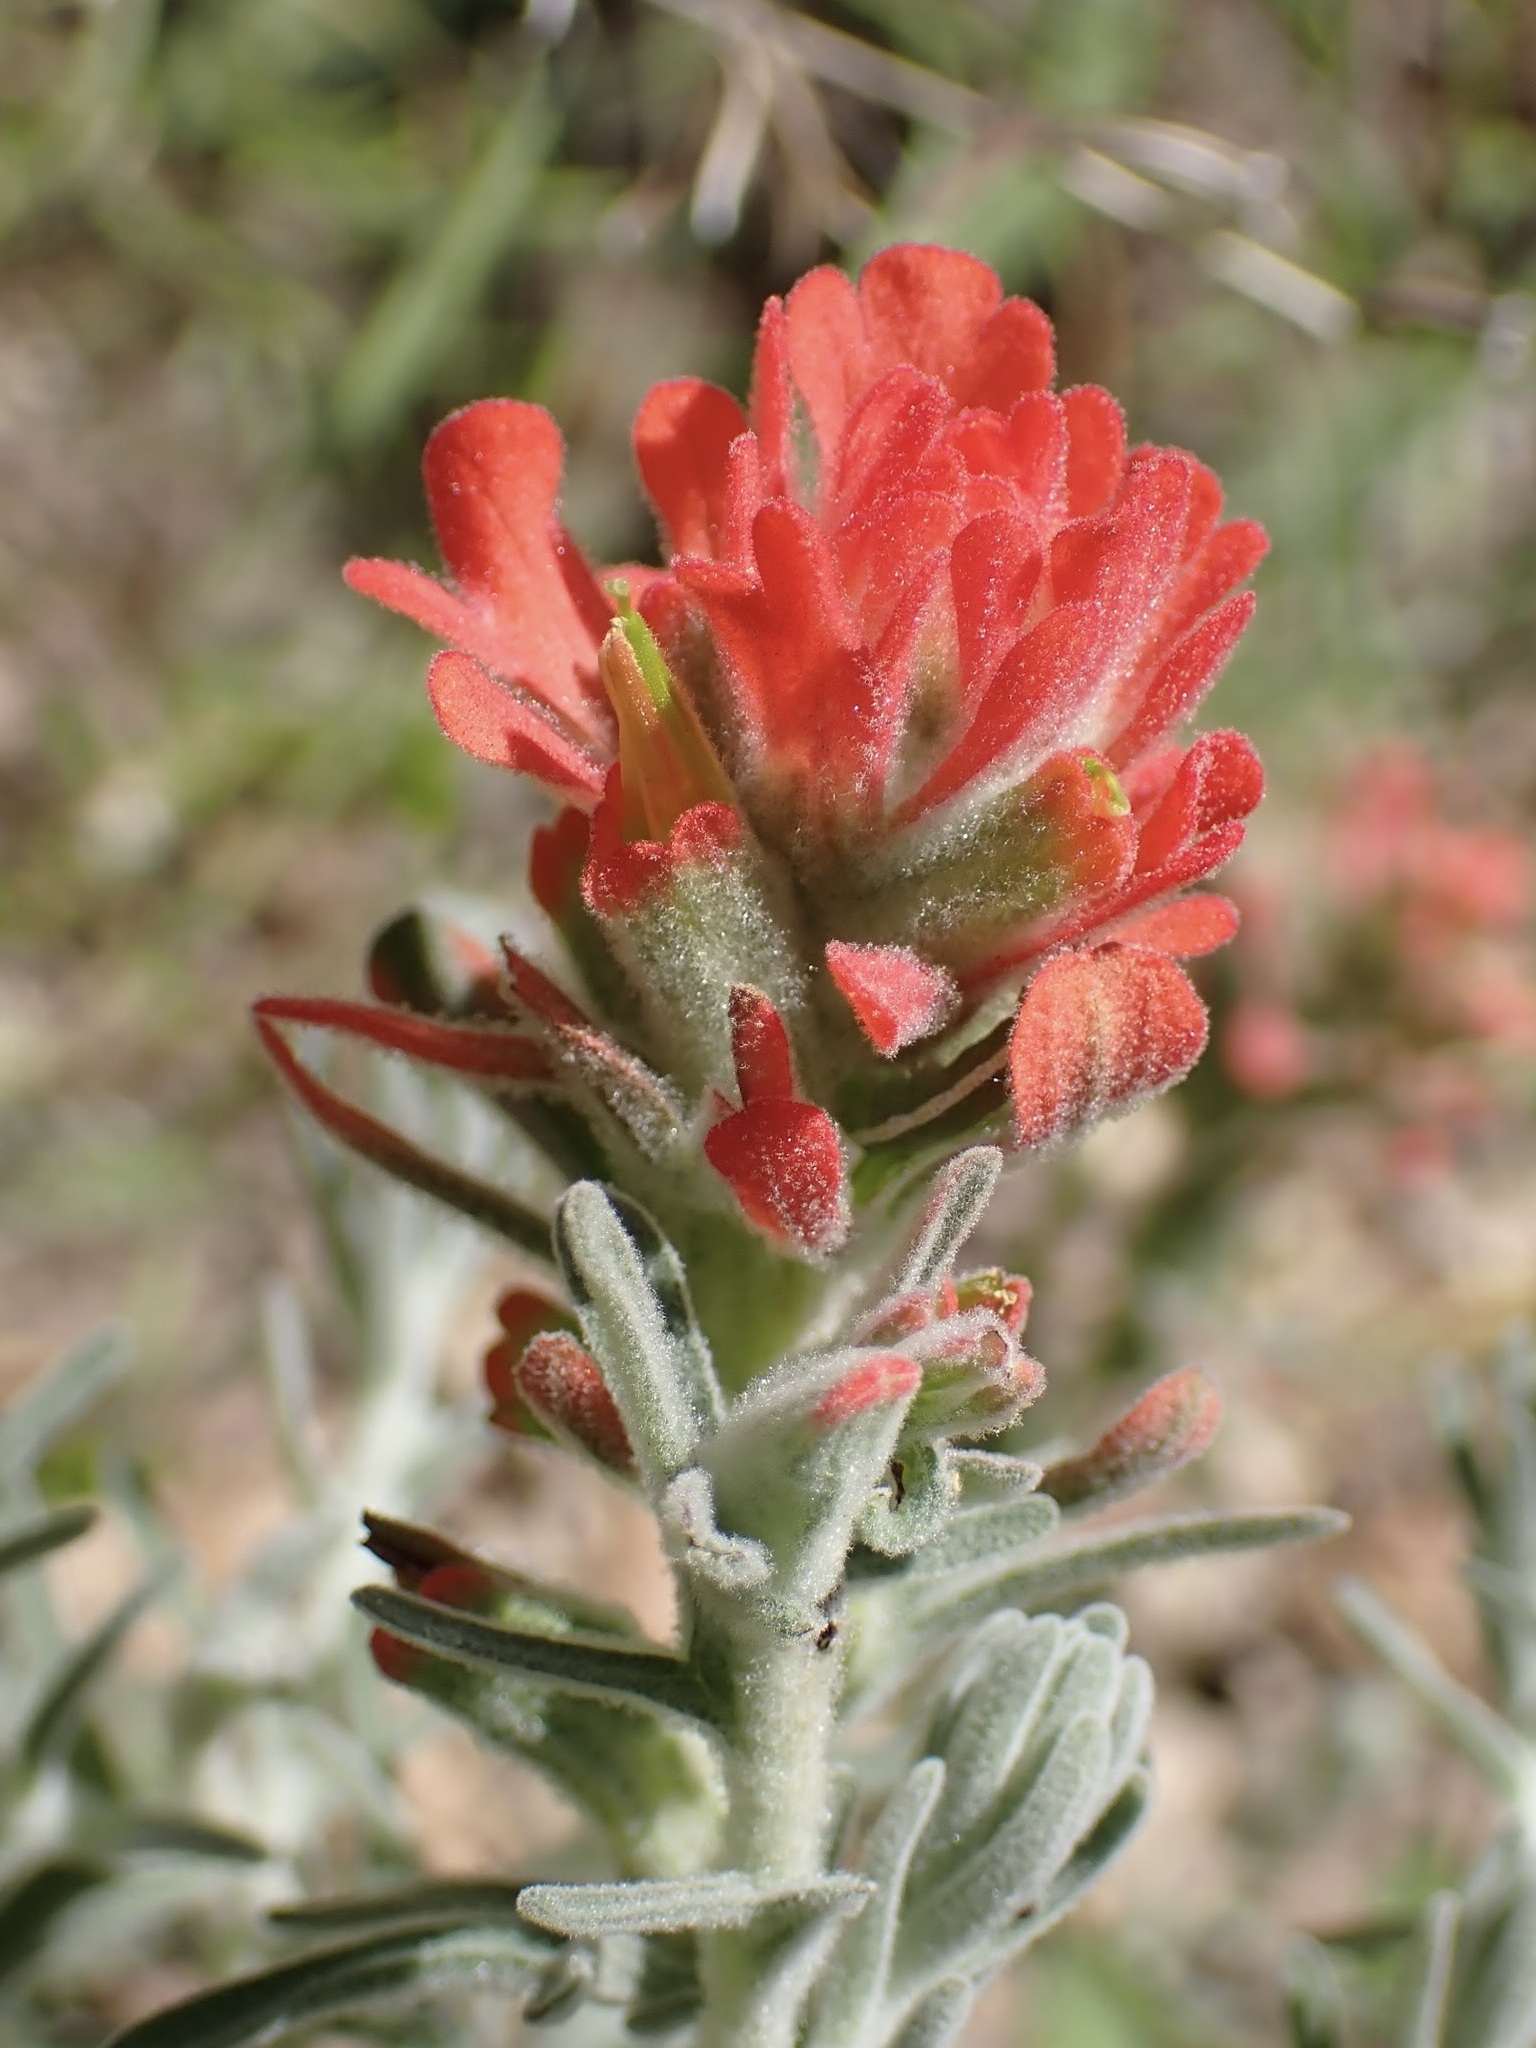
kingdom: Plantae
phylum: Tracheophyta
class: Magnoliopsida
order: Lamiales
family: Orobanchaceae
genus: Castilleja
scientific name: Castilleja foliolosa
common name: Woolly indian paintbrush
